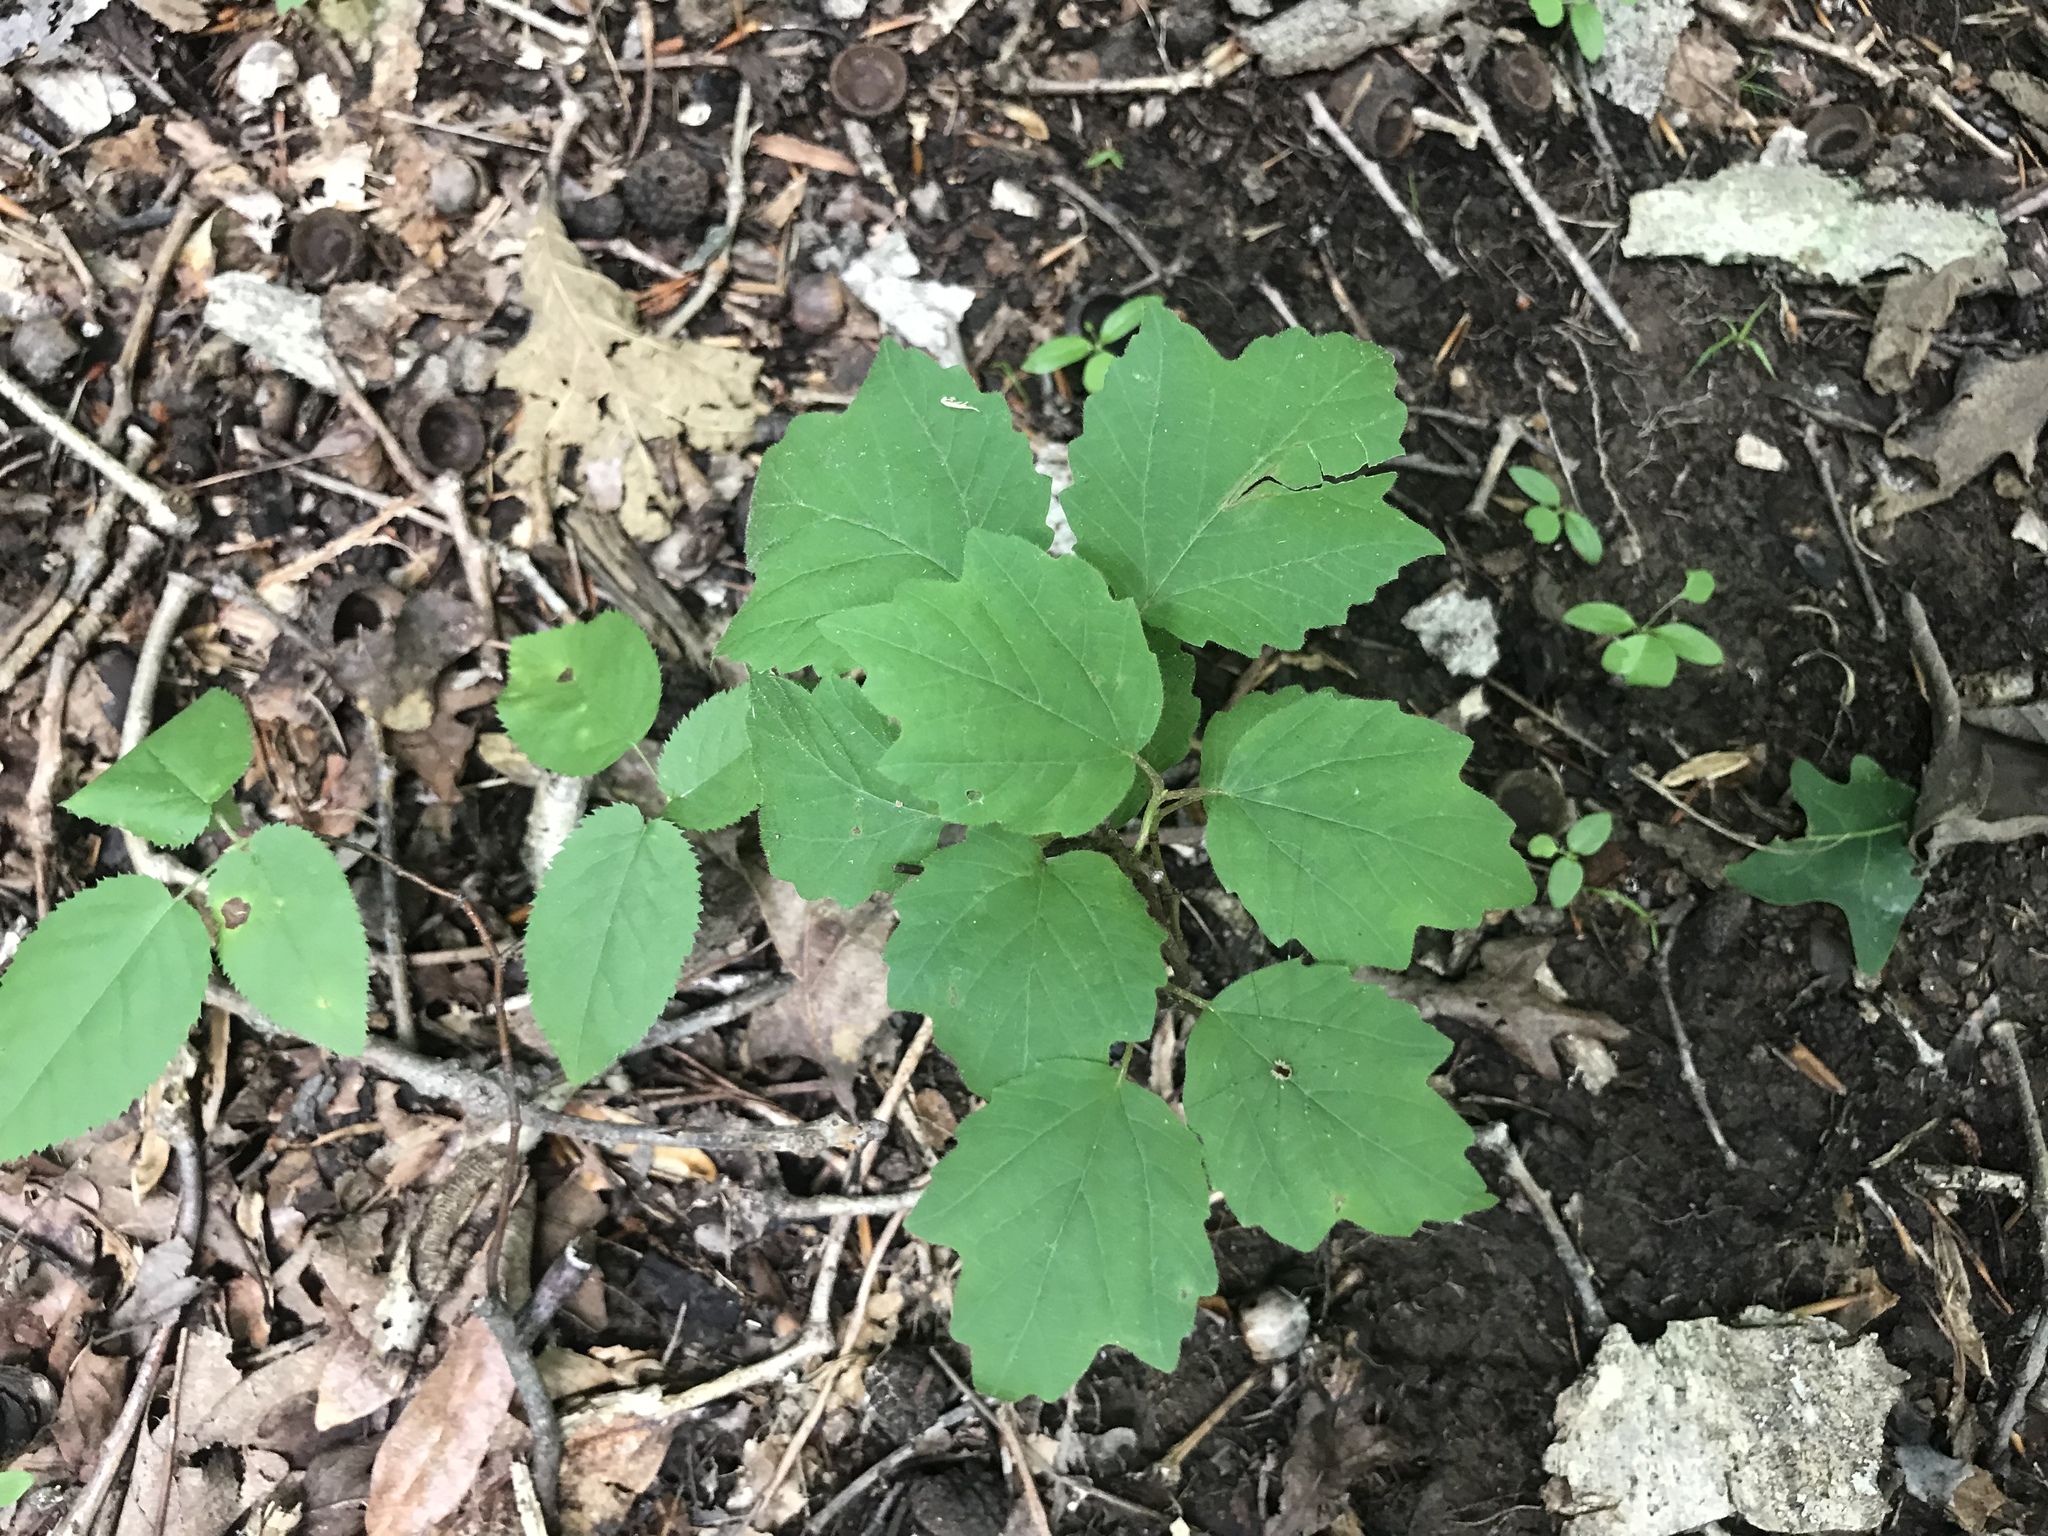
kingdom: Plantae
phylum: Tracheophyta
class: Magnoliopsida
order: Dipsacales
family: Viburnaceae
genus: Viburnum
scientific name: Viburnum acerifolium
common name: Dockmackie
